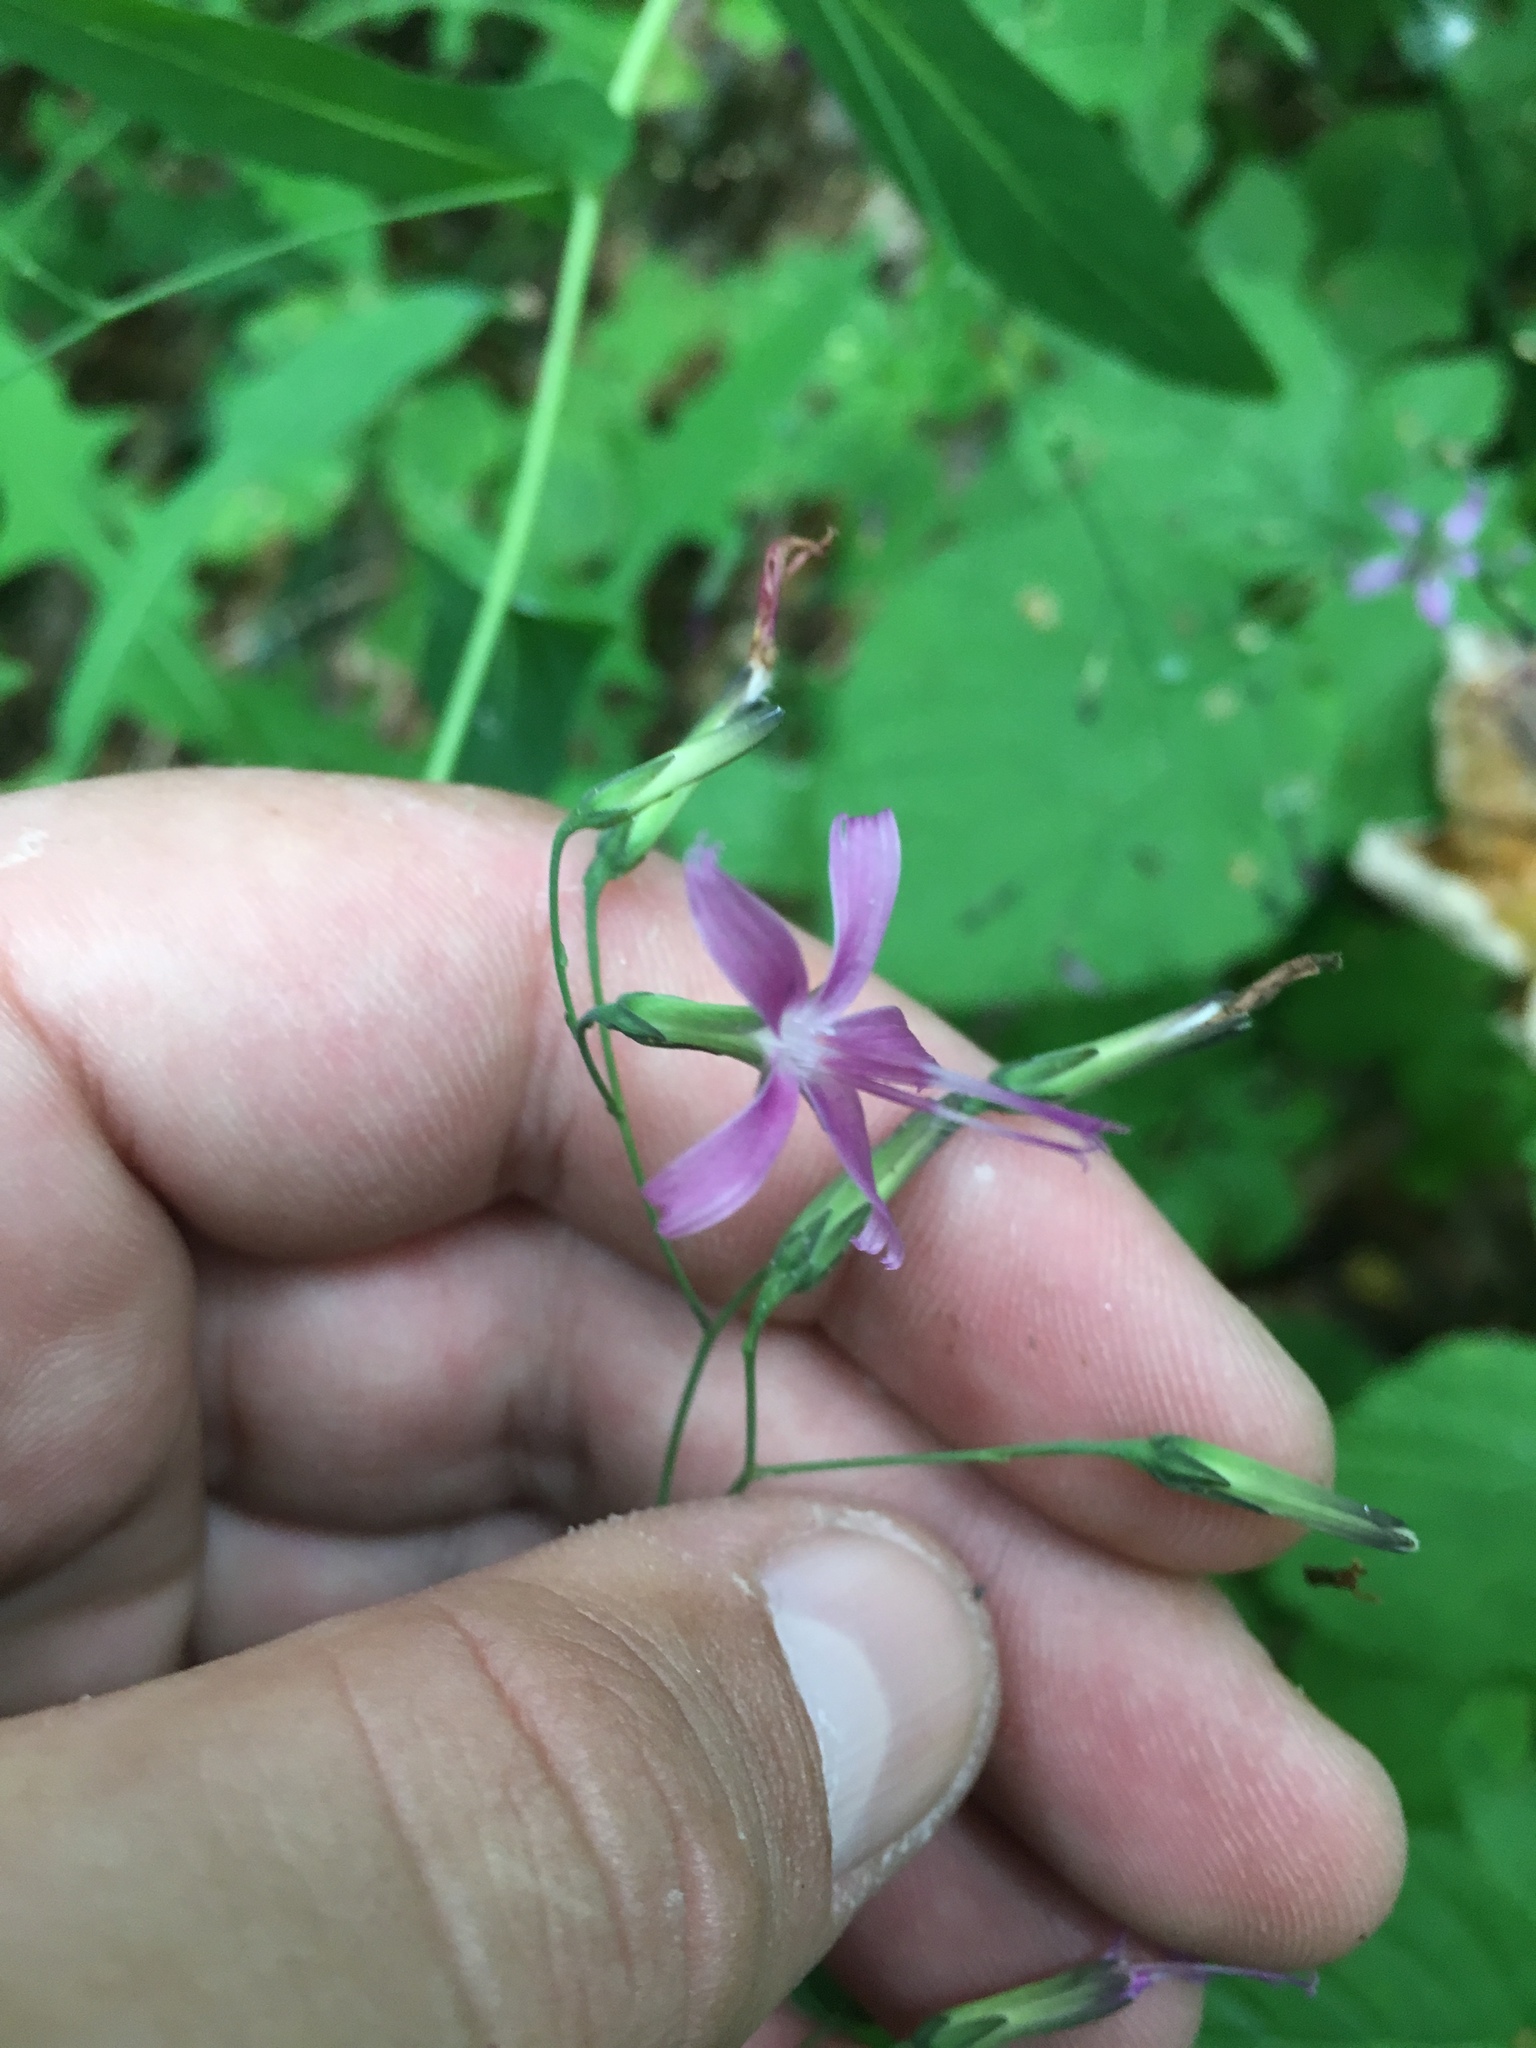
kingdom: Plantae
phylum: Tracheophyta
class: Magnoliopsida
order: Asterales
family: Asteraceae
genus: Prenanthes
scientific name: Prenanthes purpurea
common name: Purple lettuce
